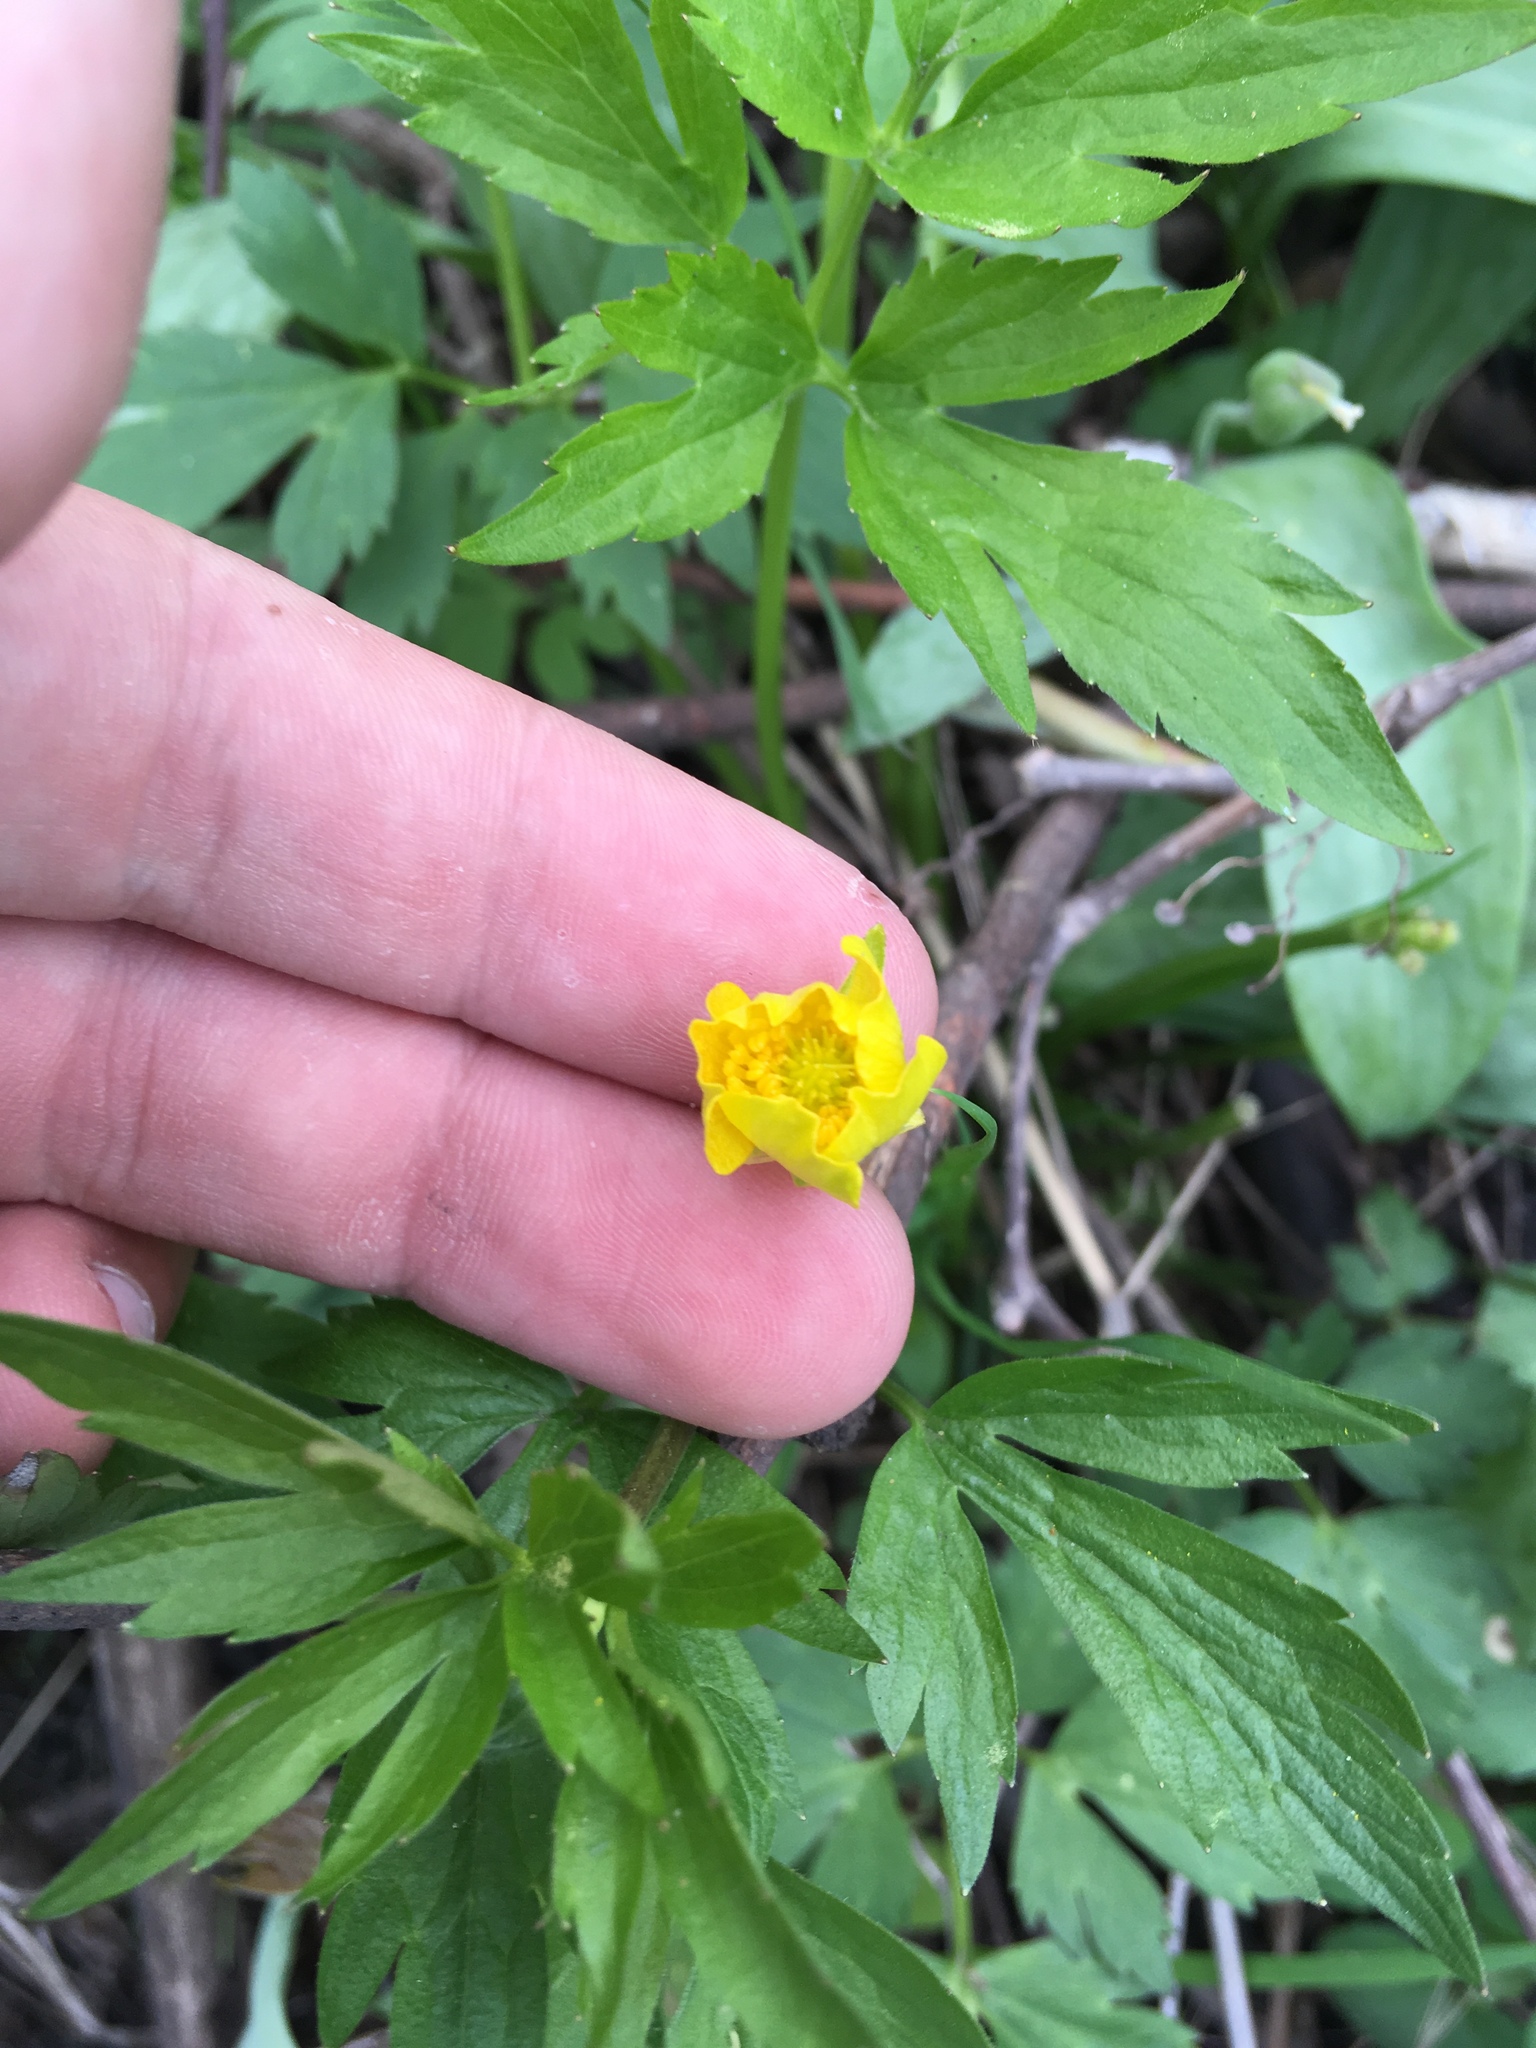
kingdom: Plantae
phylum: Tracheophyta
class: Magnoliopsida
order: Ranunculales
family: Ranunculaceae
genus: Ranunculus
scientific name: Ranunculus hispidus
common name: Bristly buttercup
